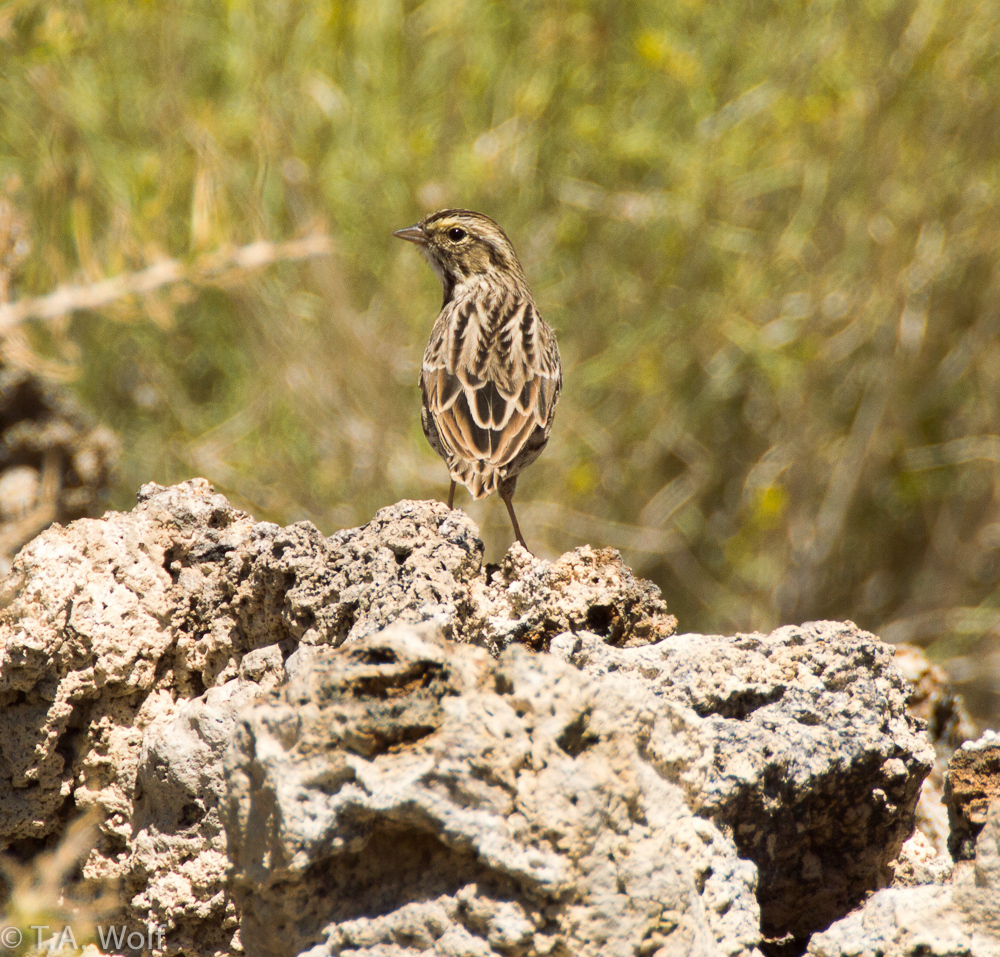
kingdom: Animalia
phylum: Chordata
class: Aves
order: Passeriformes
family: Passerellidae
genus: Passerculus
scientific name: Passerculus sandwichensis
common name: Savannah sparrow
